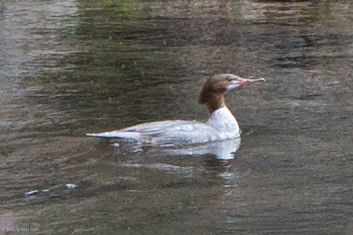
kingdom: Animalia
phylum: Chordata
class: Aves
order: Anseriformes
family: Anatidae
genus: Mergus
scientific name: Mergus merganser
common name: Common merganser
